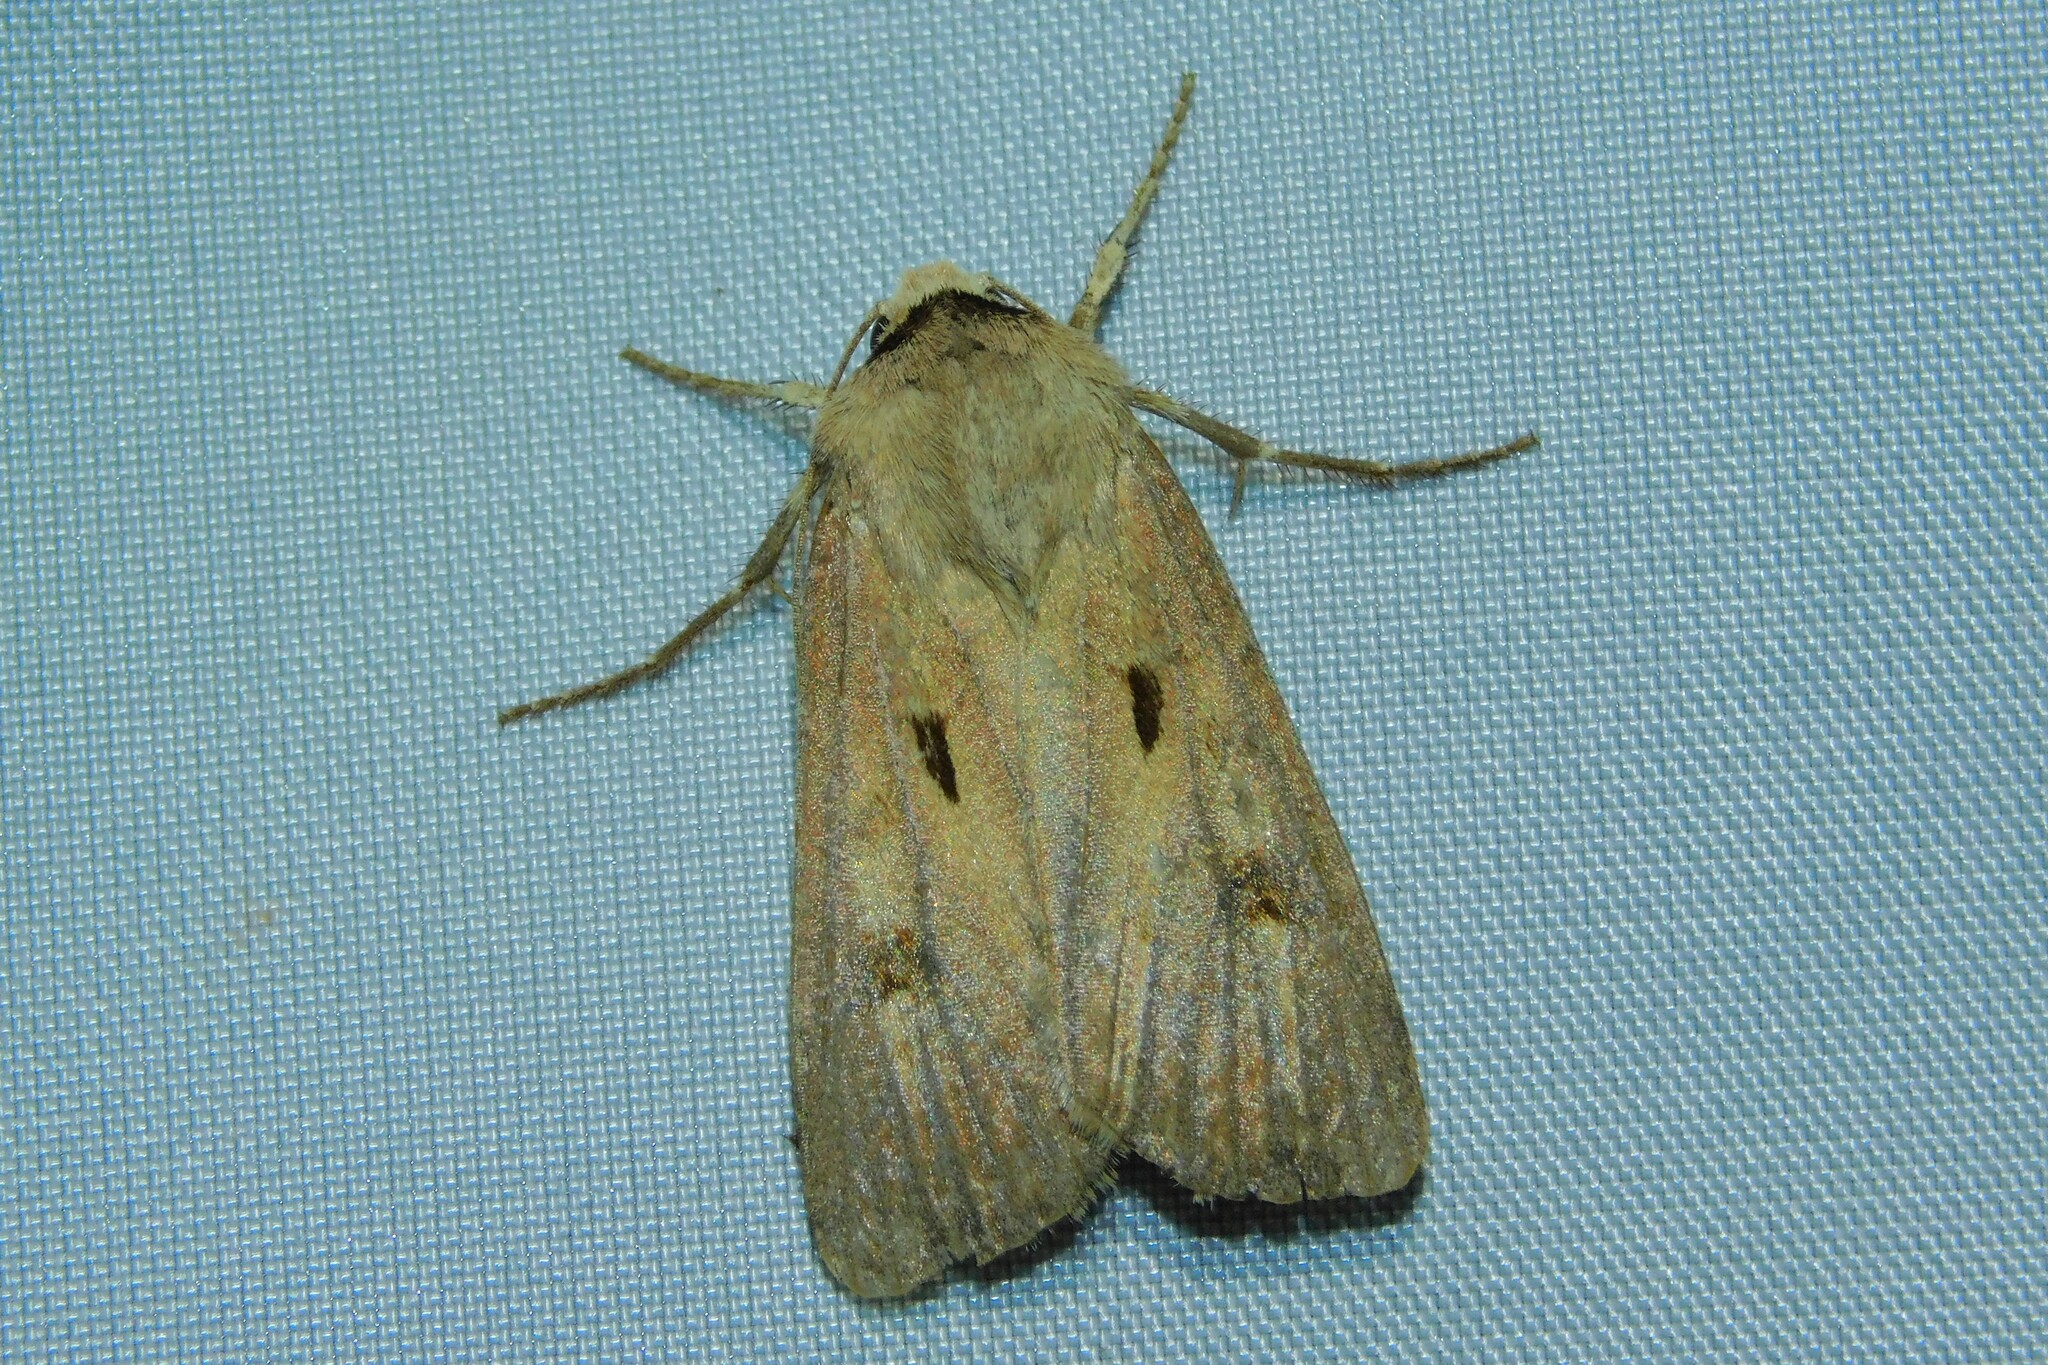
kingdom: Animalia
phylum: Arthropoda
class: Insecta
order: Lepidoptera
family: Noctuidae
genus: Agrotis
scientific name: Agrotis exclamationis
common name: Heart and dart
